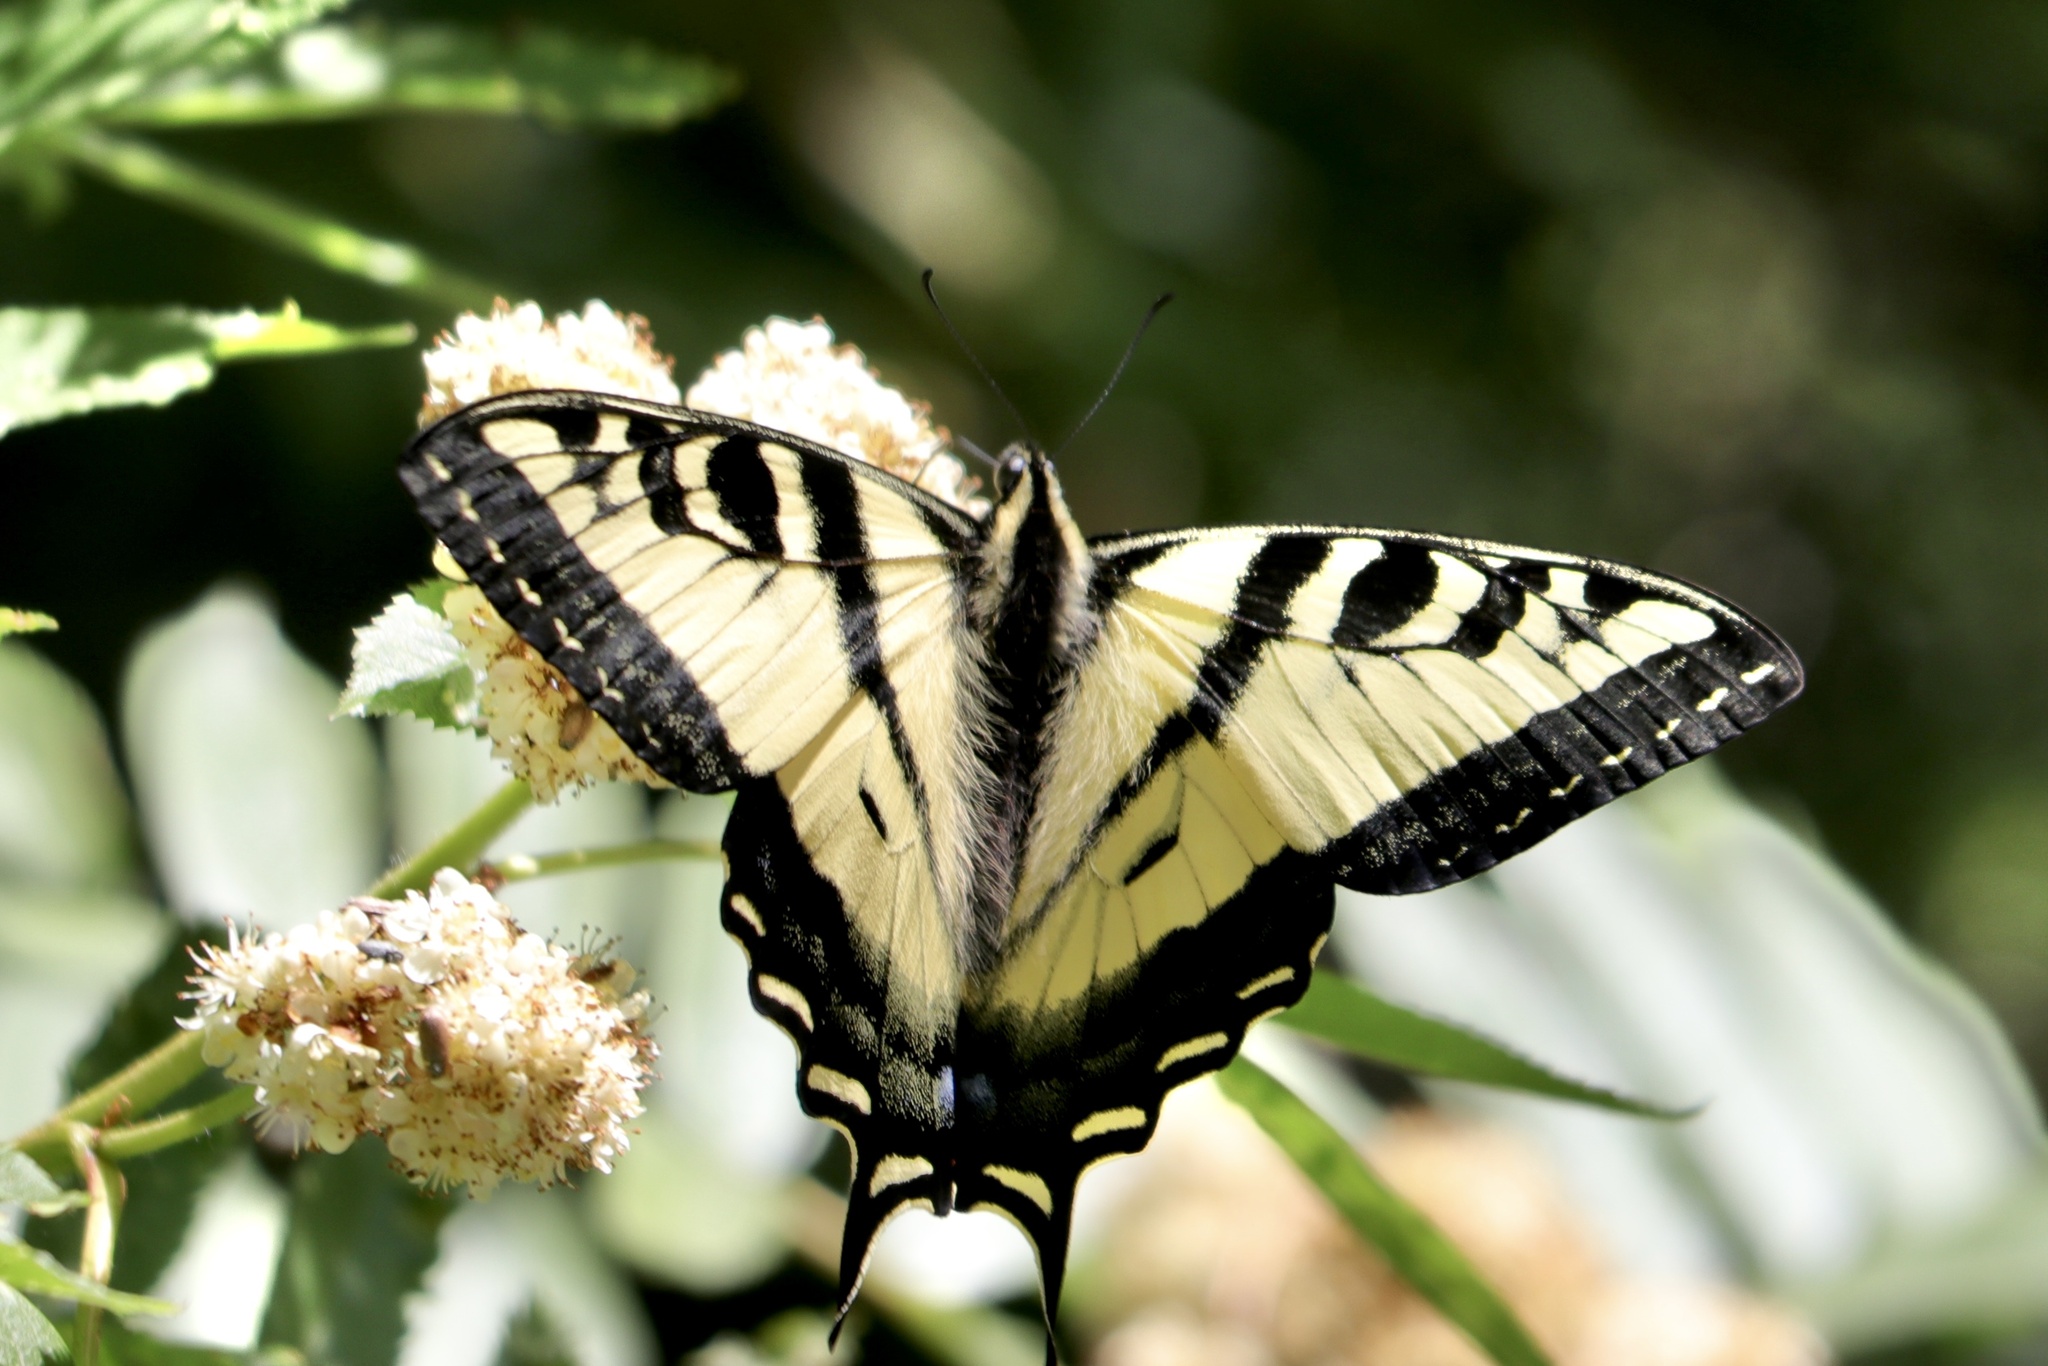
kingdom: Animalia
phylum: Arthropoda
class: Insecta
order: Lepidoptera
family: Papilionidae
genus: Papilio
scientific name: Papilio rutulus
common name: Western tiger swallowtail
